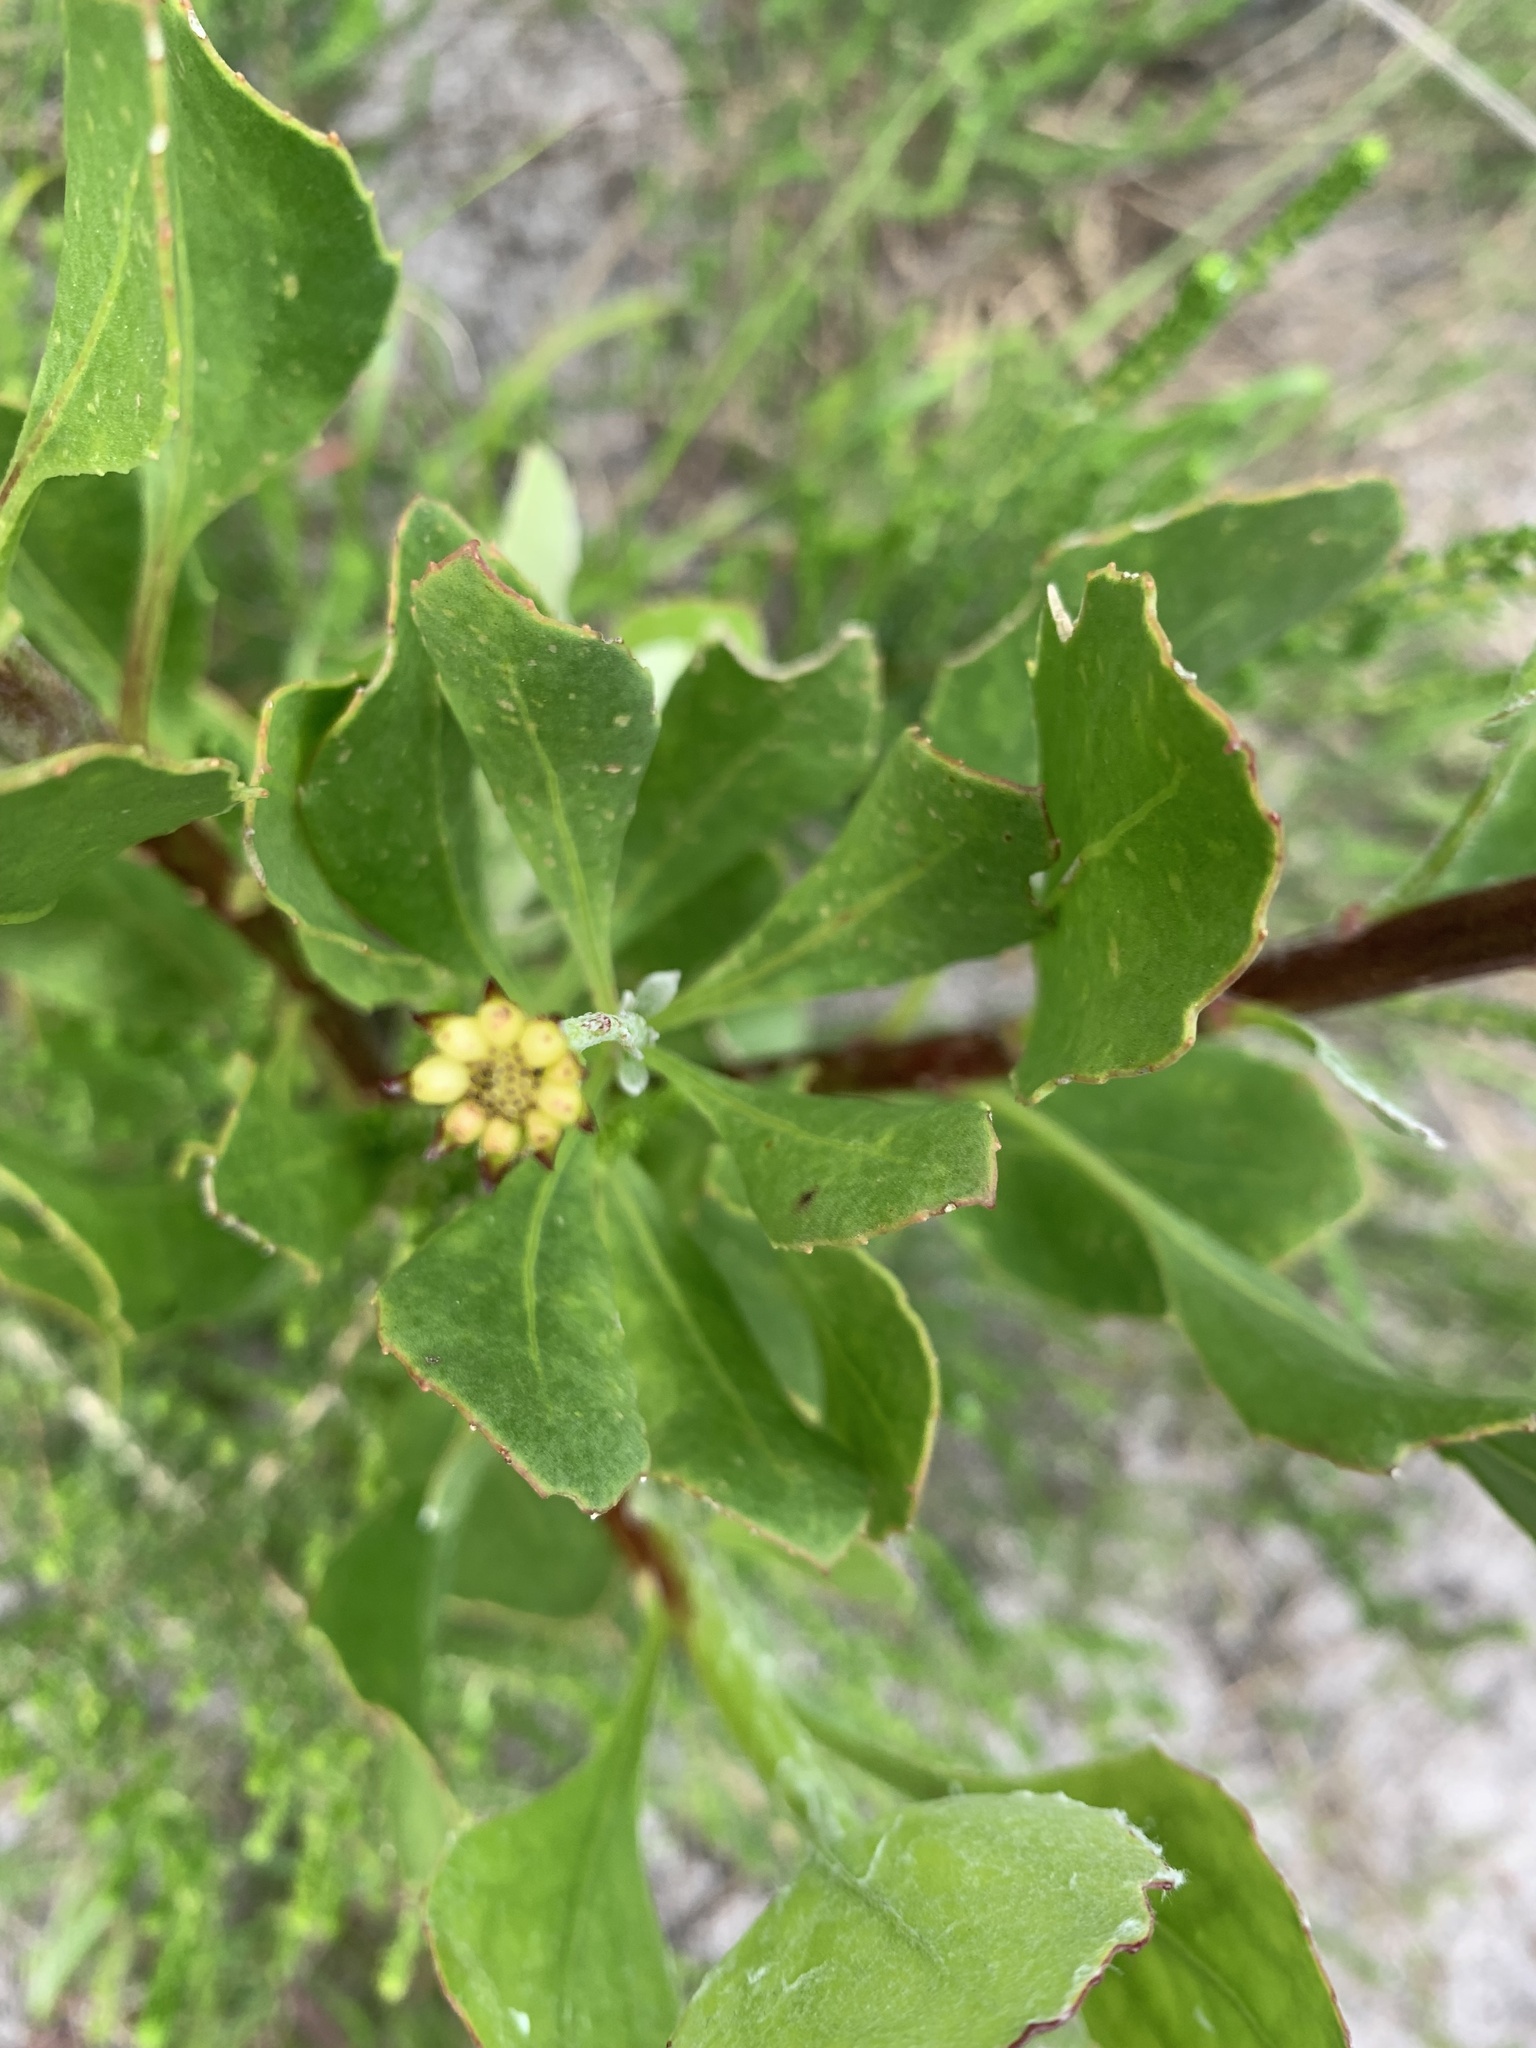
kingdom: Plantae
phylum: Tracheophyta
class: Magnoliopsida
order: Asterales
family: Asteraceae
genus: Osteospermum
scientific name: Osteospermum moniliferum
